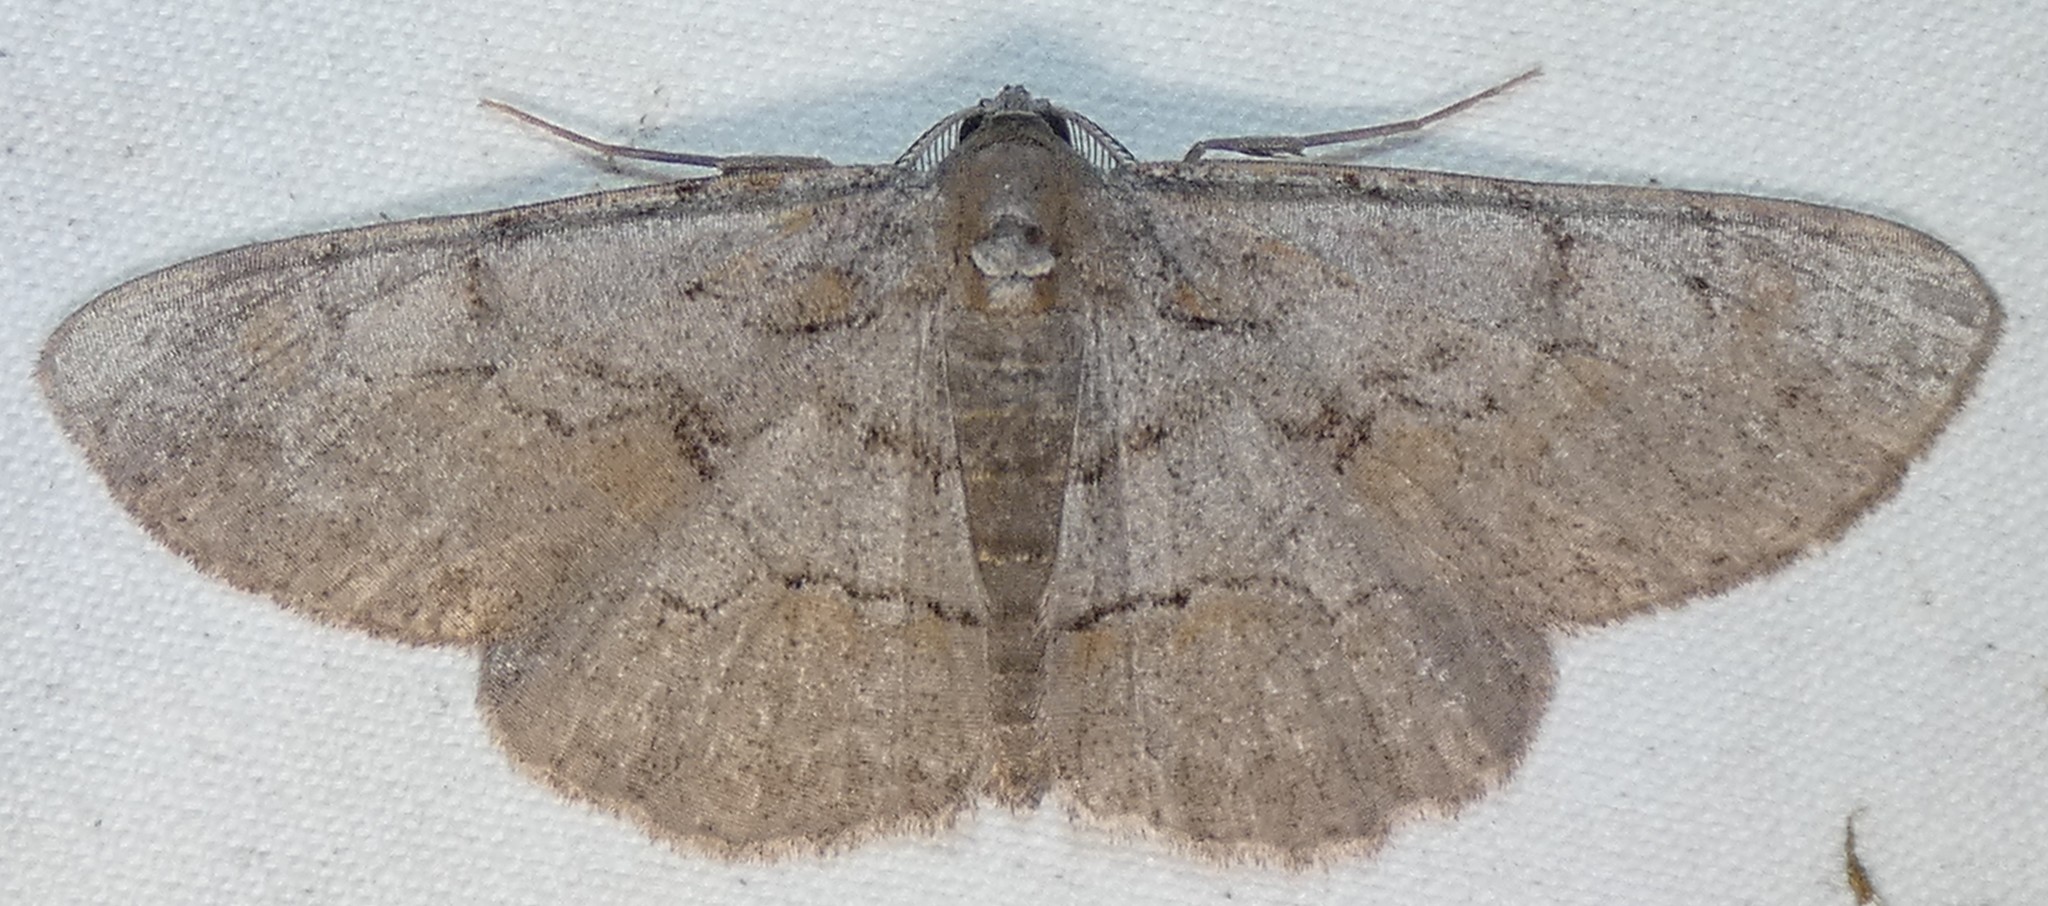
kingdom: Animalia
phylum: Arthropoda
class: Insecta
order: Lepidoptera
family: Geometridae
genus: Iridopsis
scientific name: Iridopsis vellivolata
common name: Large purplish gray
